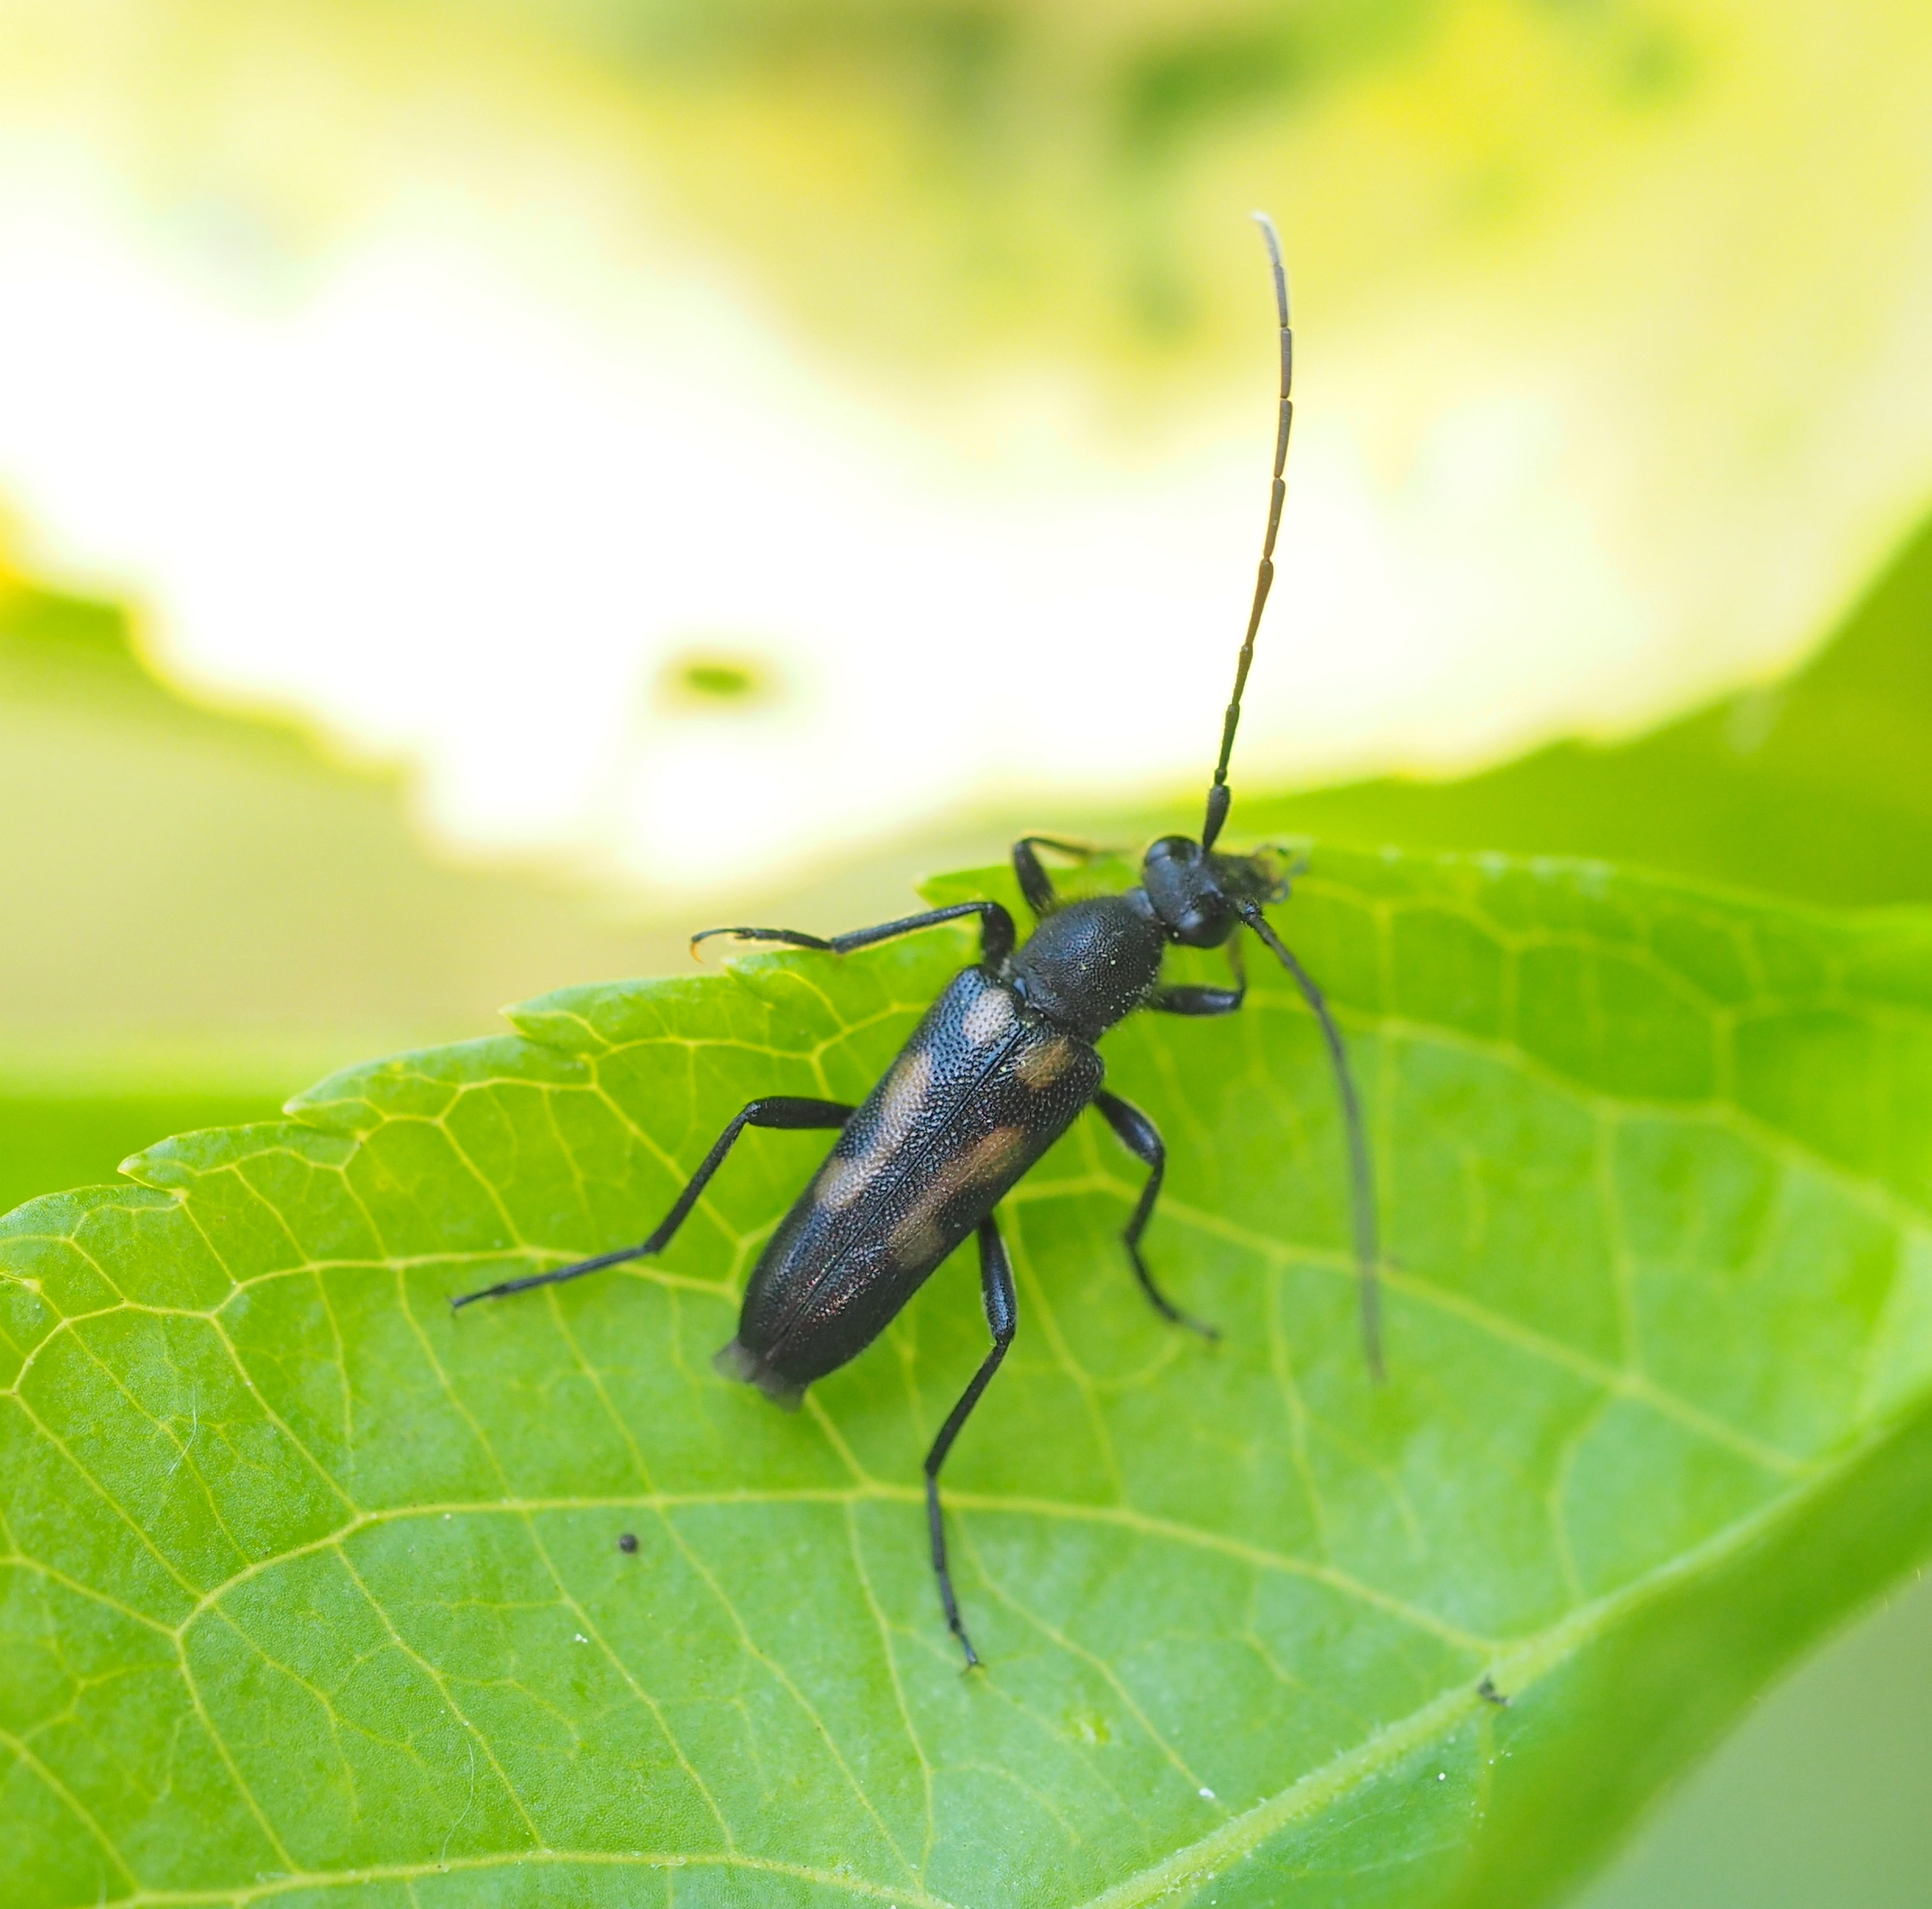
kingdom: Animalia
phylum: Arthropoda
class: Insecta
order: Coleoptera
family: Cerambycidae
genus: Anoplodera
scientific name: Anoplodera sexguttata
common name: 6 spotted longhorn
